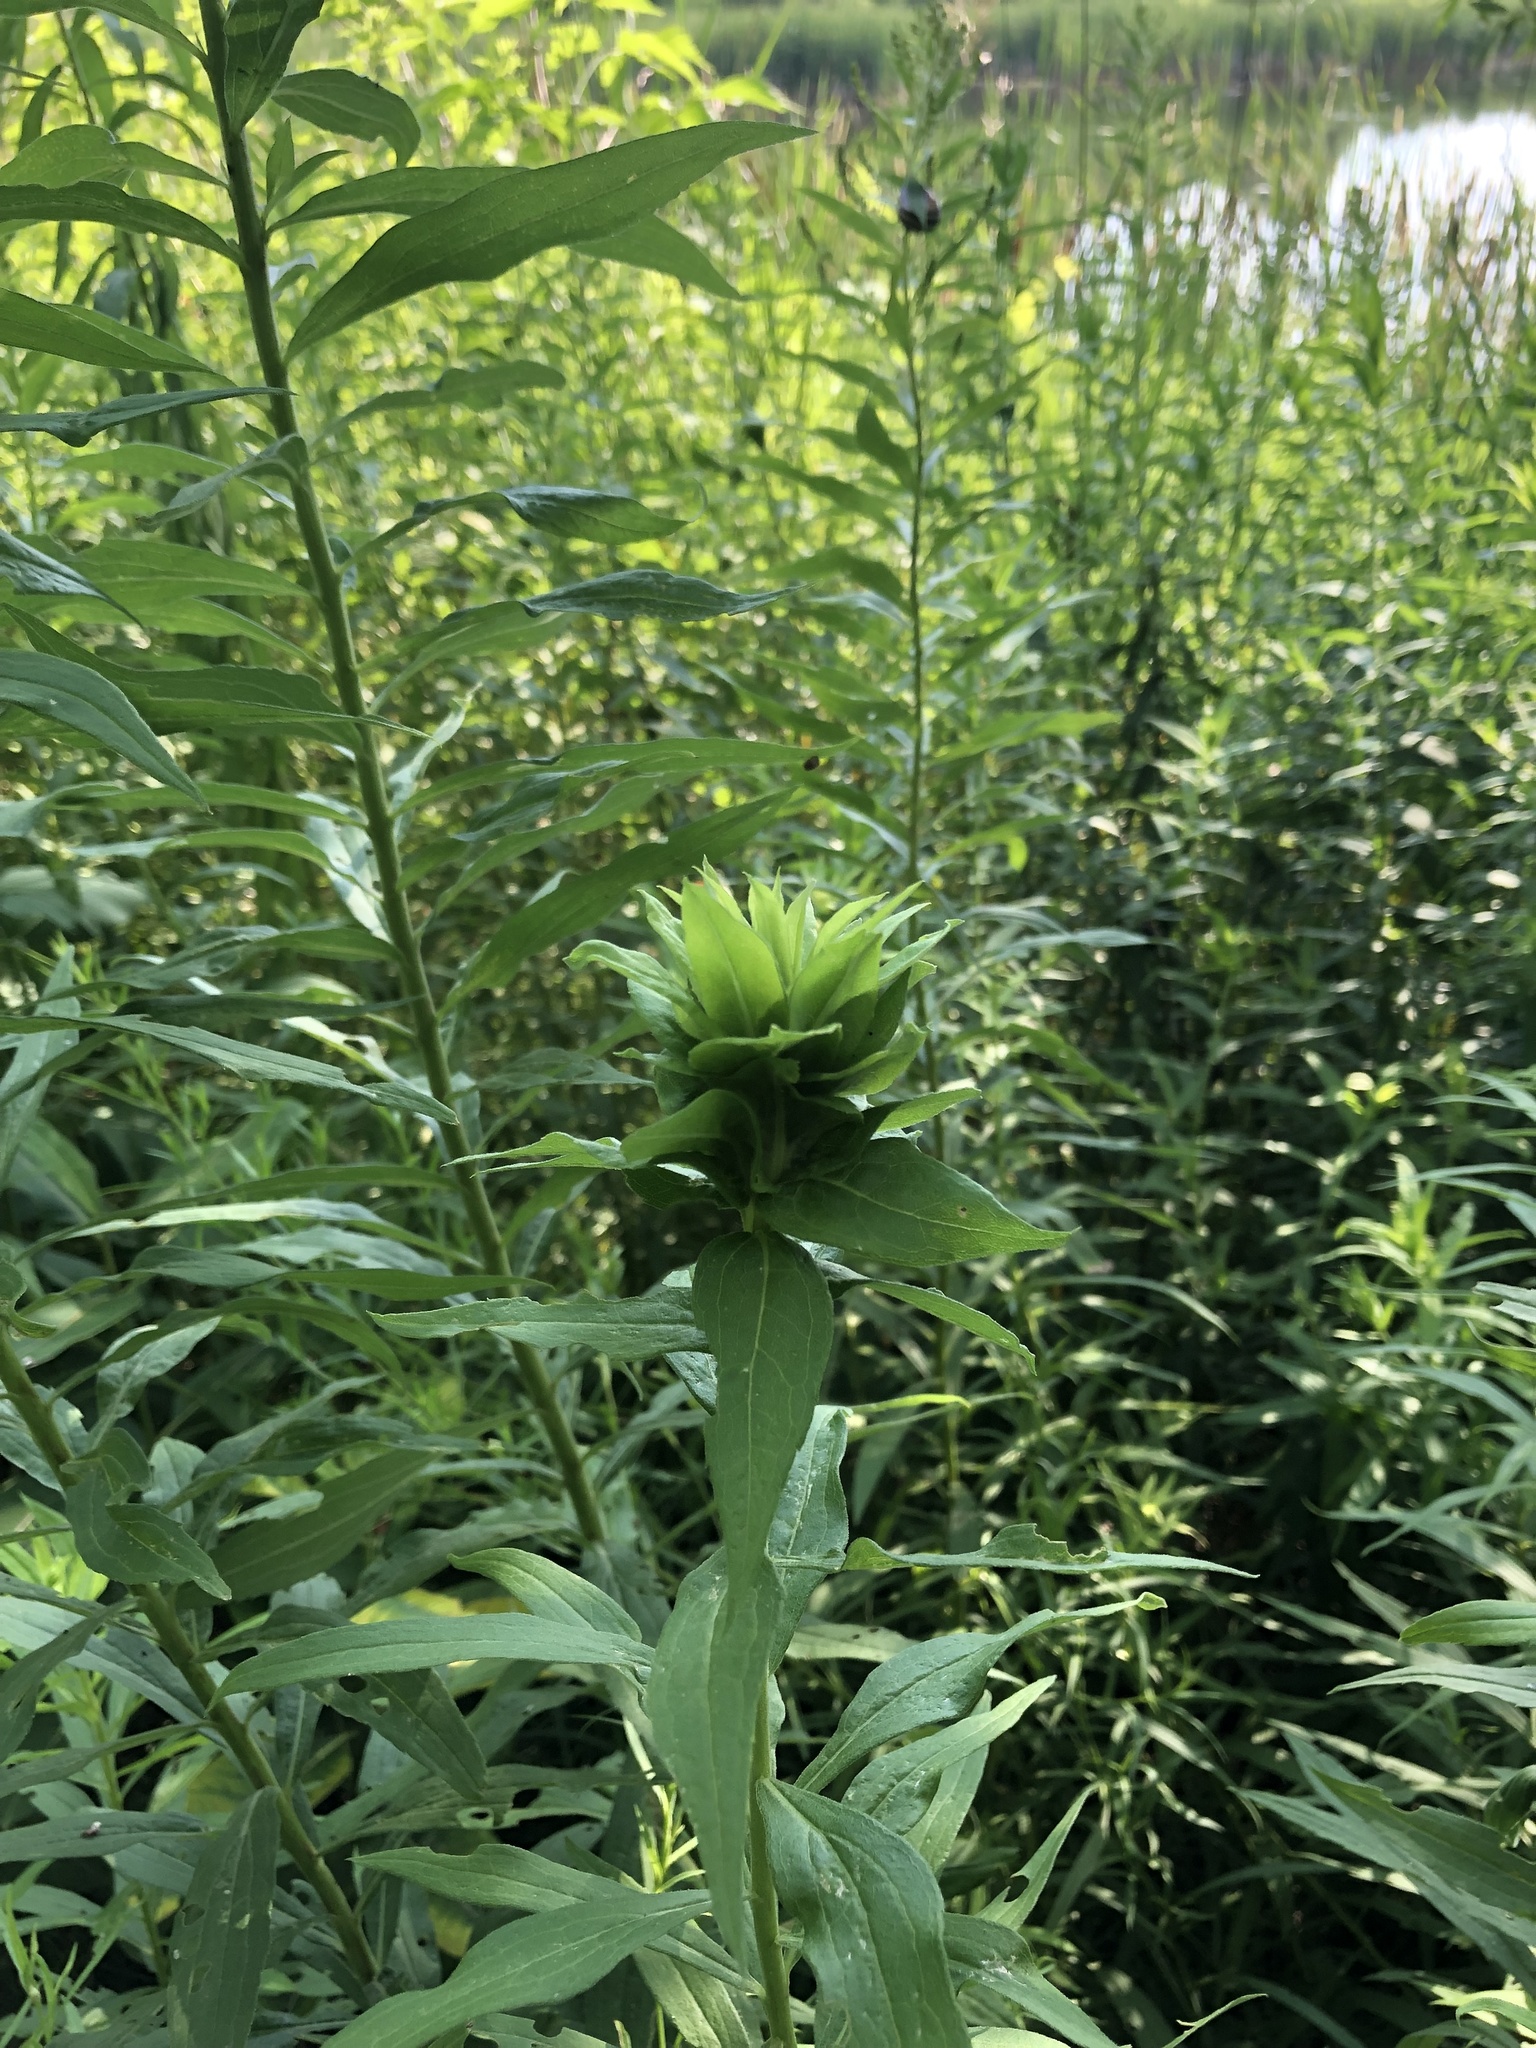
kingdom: Animalia
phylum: Arthropoda
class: Insecta
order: Diptera
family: Cecidomyiidae
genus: Rhopalomyia
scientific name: Rhopalomyia solidaginis
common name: Goldenrod bunch gall midge
